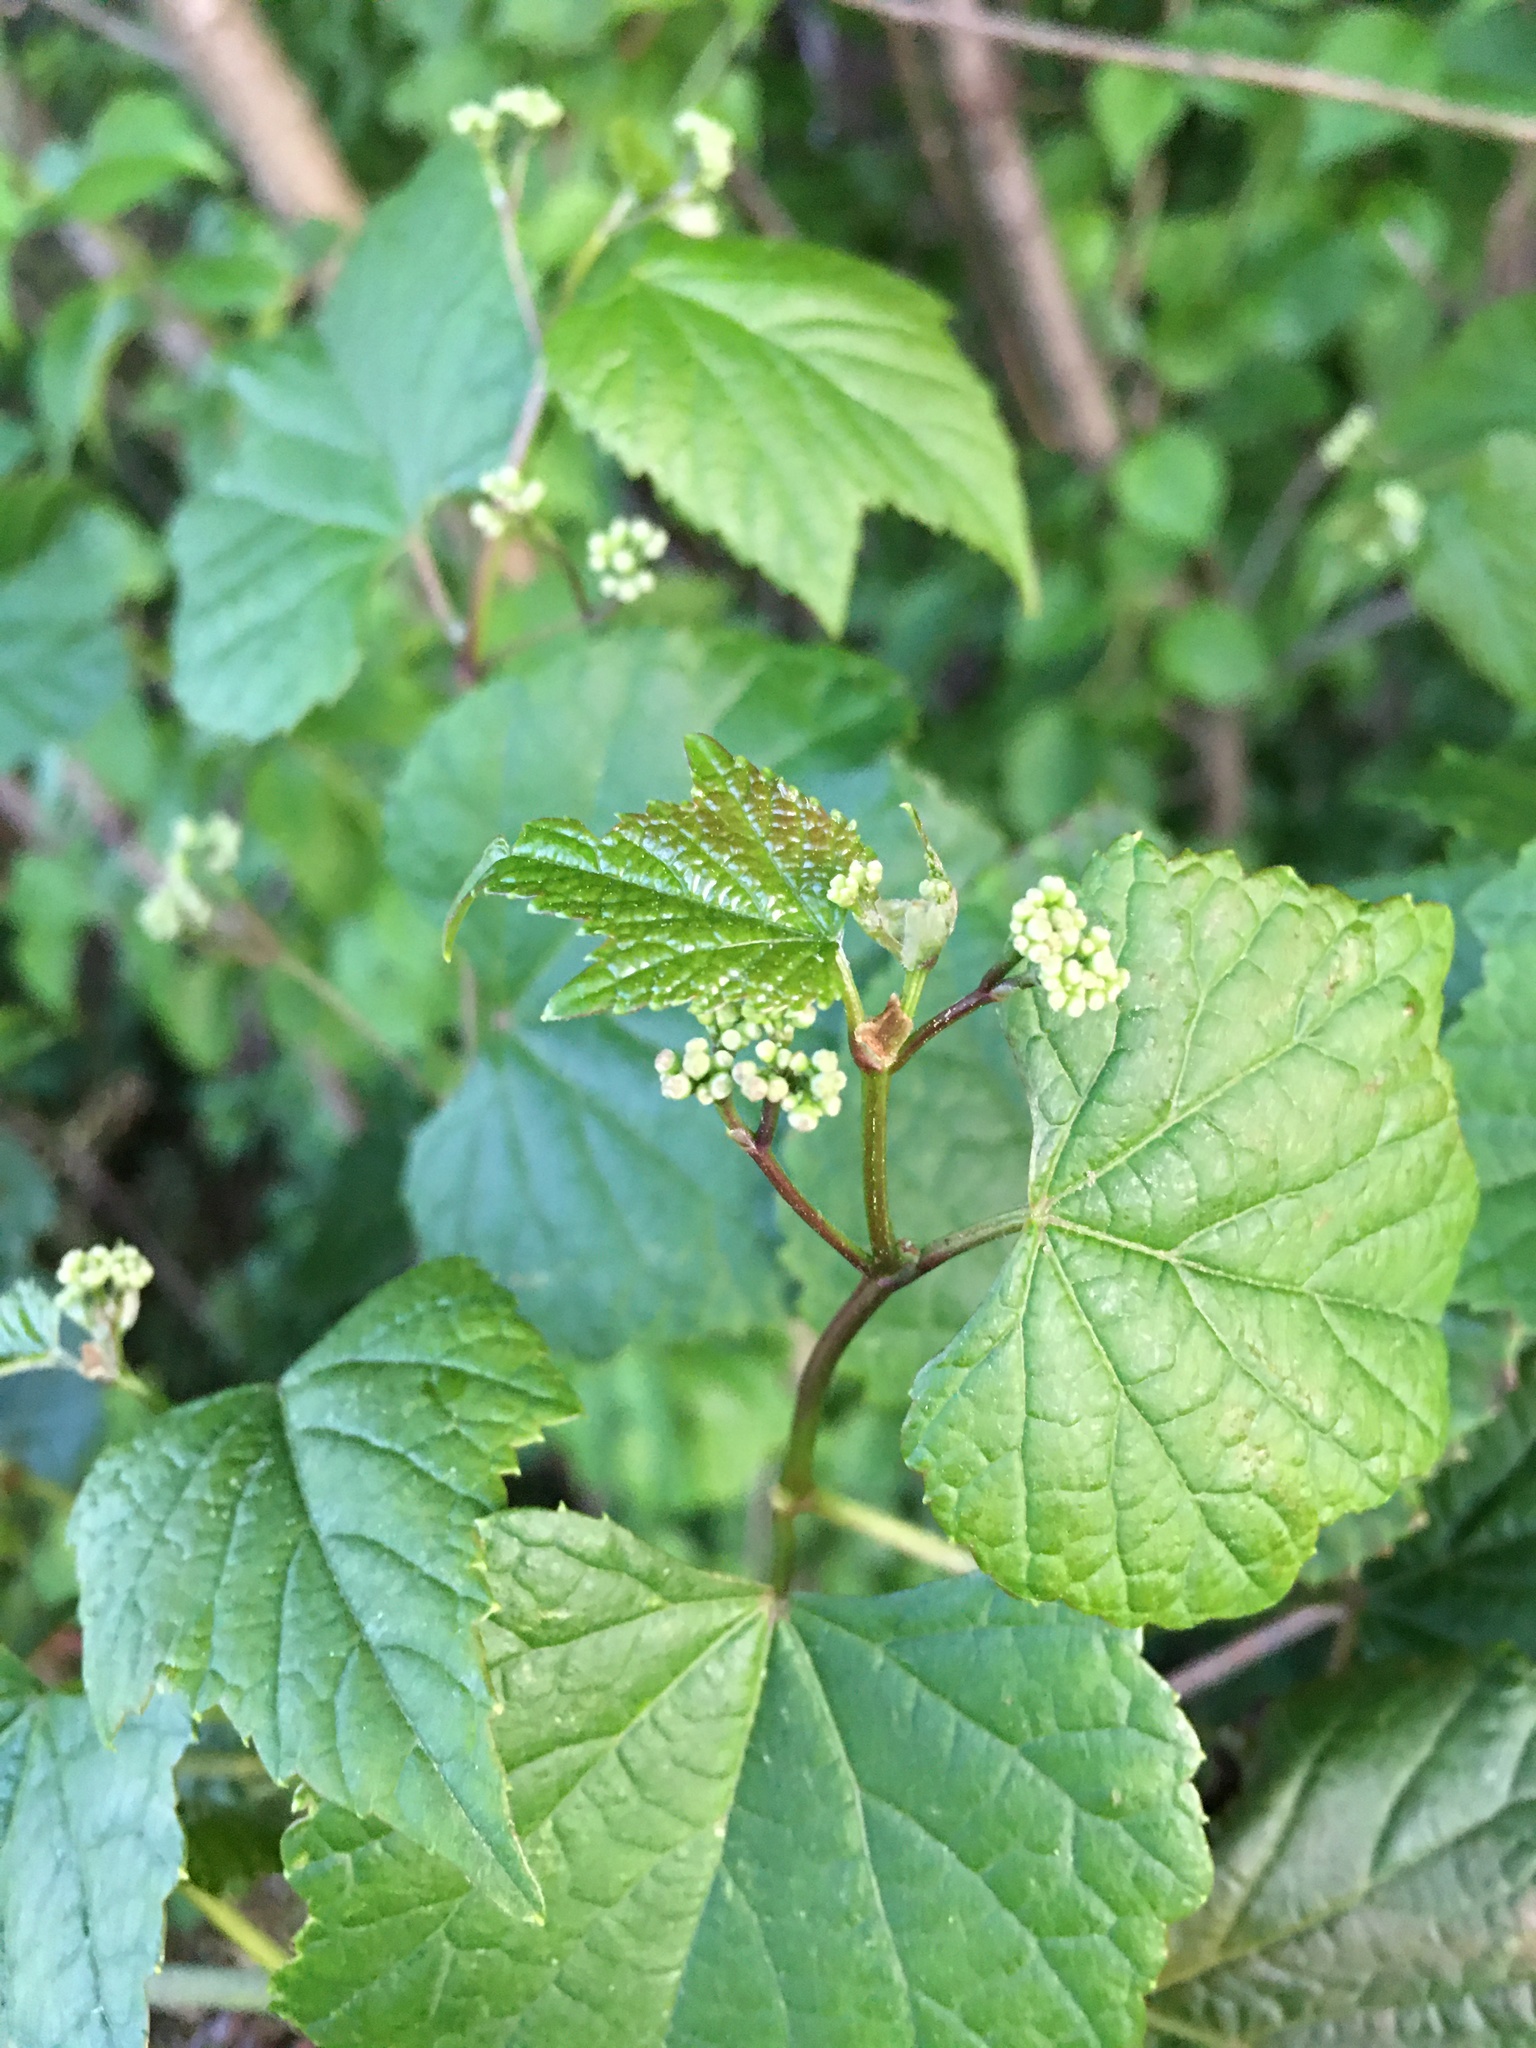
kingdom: Plantae
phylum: Tracheophyta
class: Magnoliopsida
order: Vitales
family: Vitaceae
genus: Ampelopsis
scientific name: Ampelopsis glandulosa
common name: Amur peppervine
